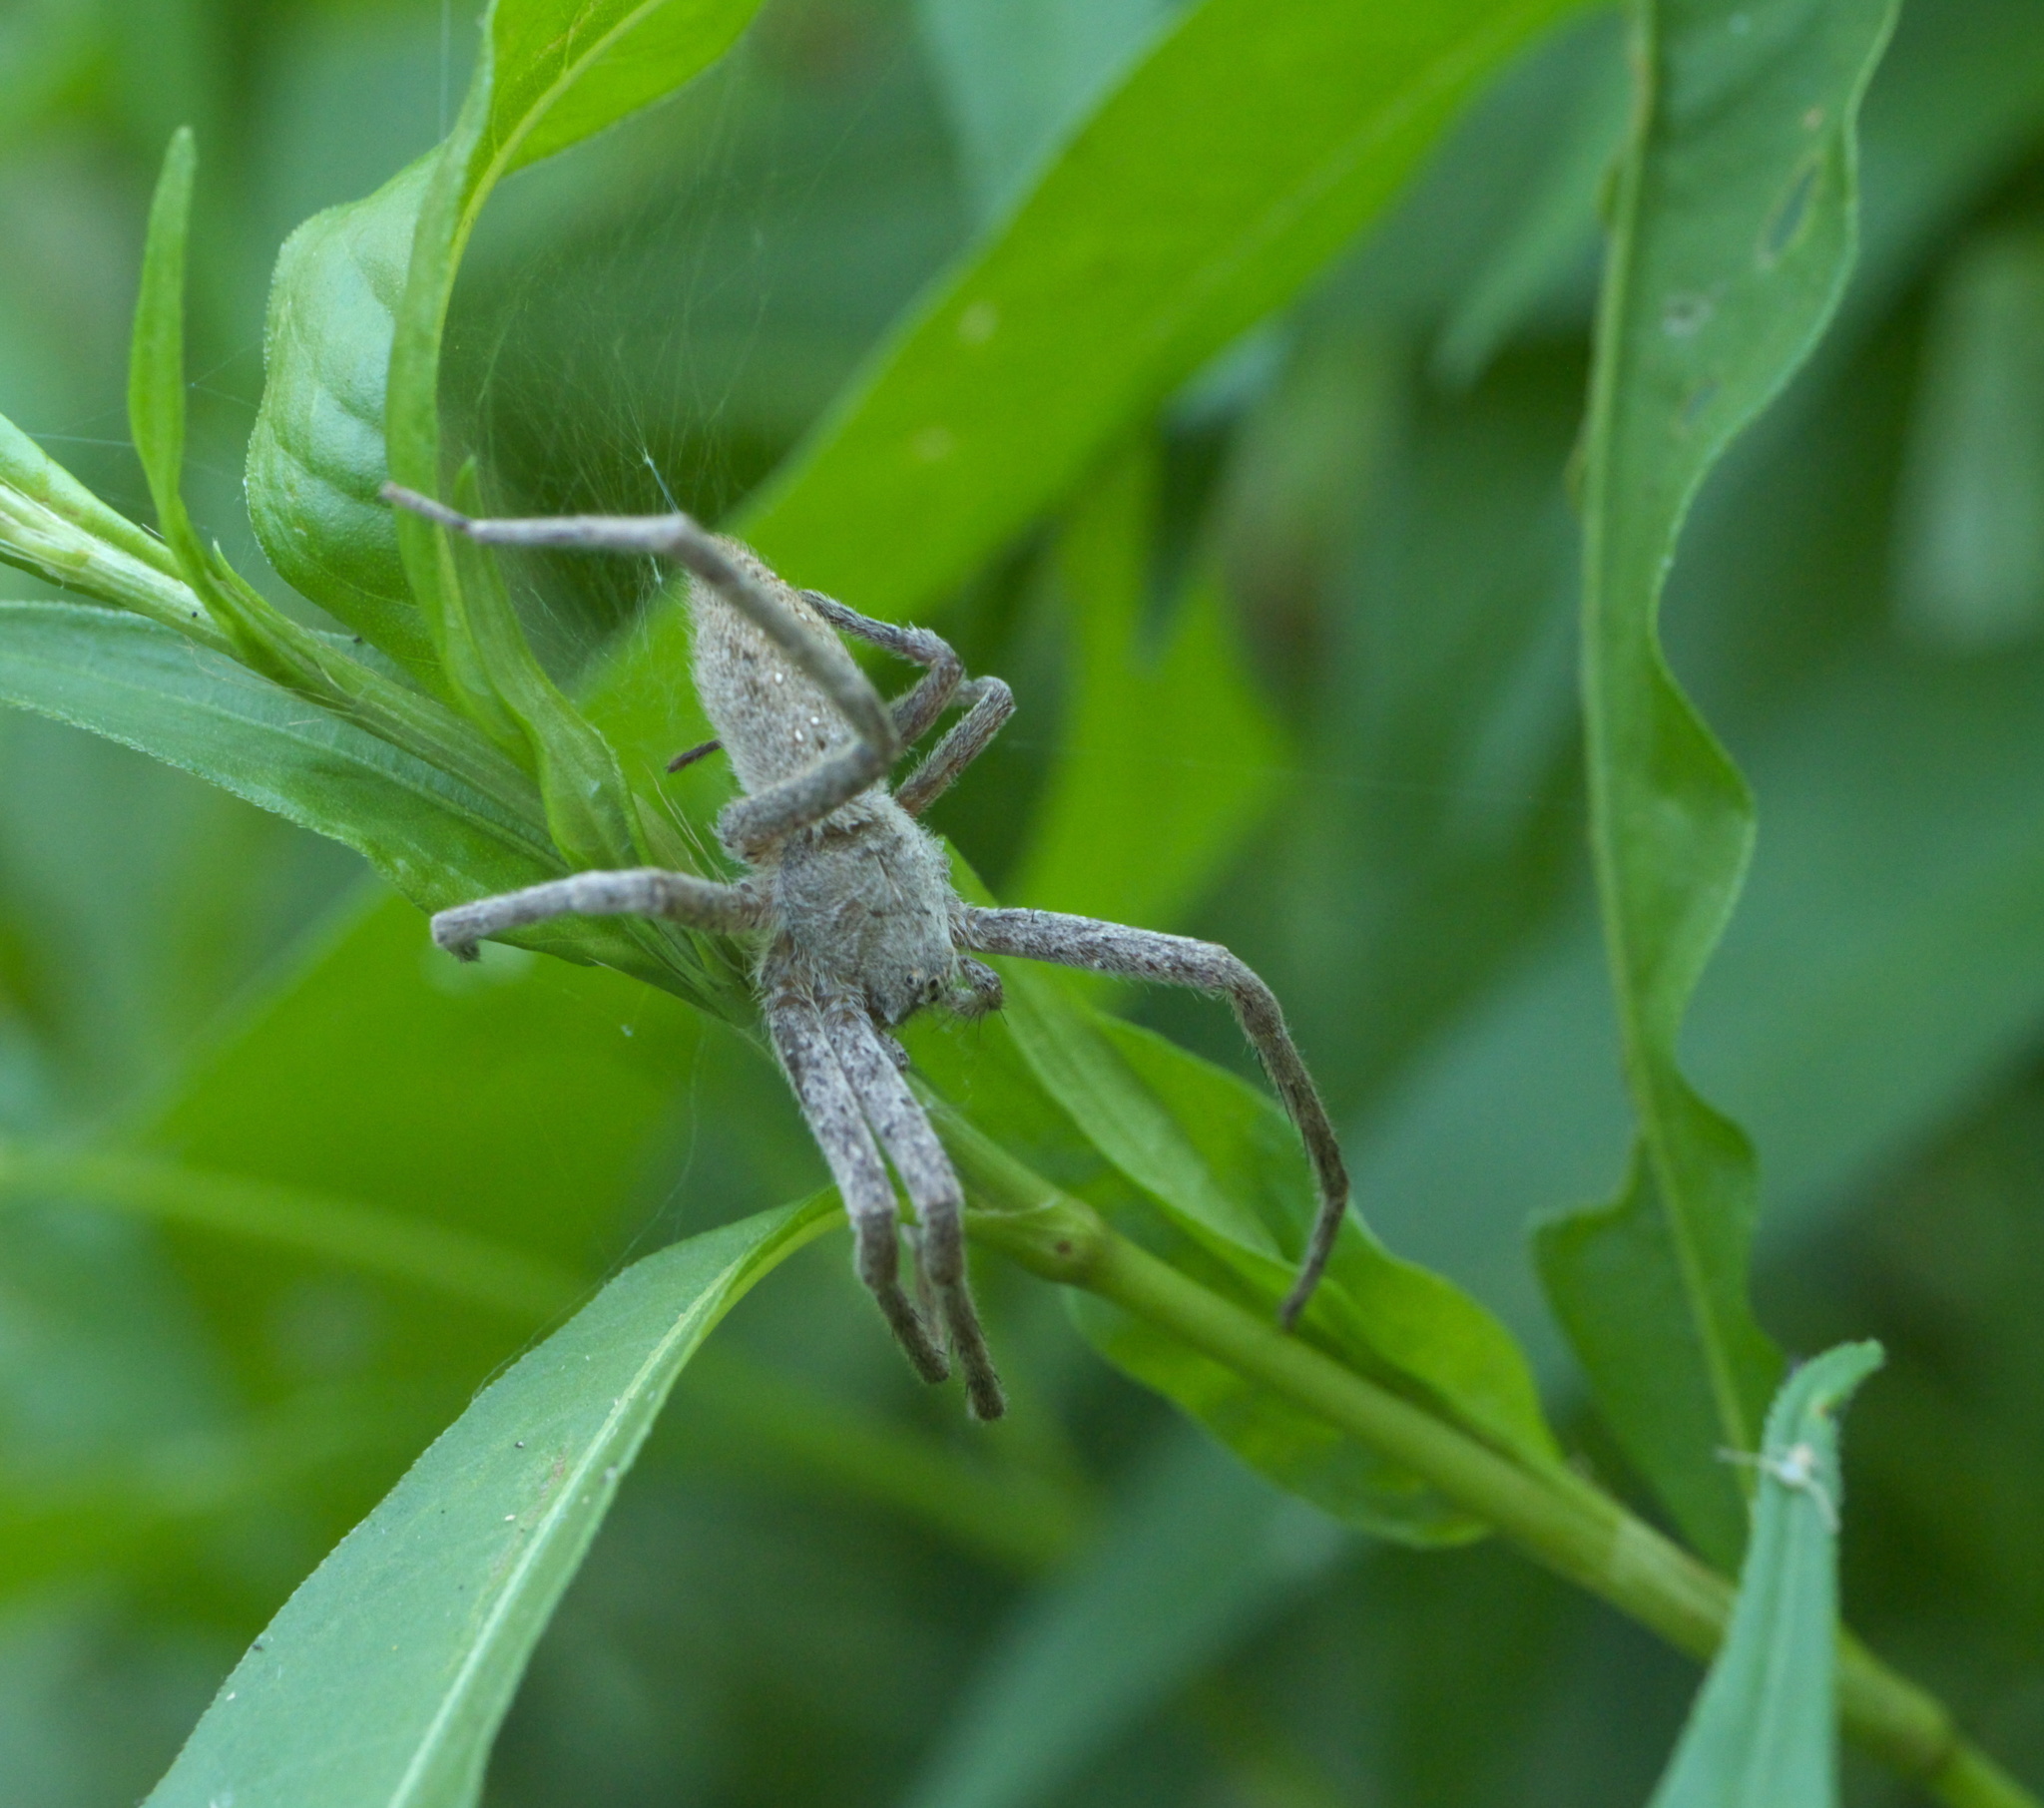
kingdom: Animalia
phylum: Arthropoda
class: Arachnida
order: Araneae
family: Pisauridae
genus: Pisaurina
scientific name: Pisaurina mira
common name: American nursery web spider
